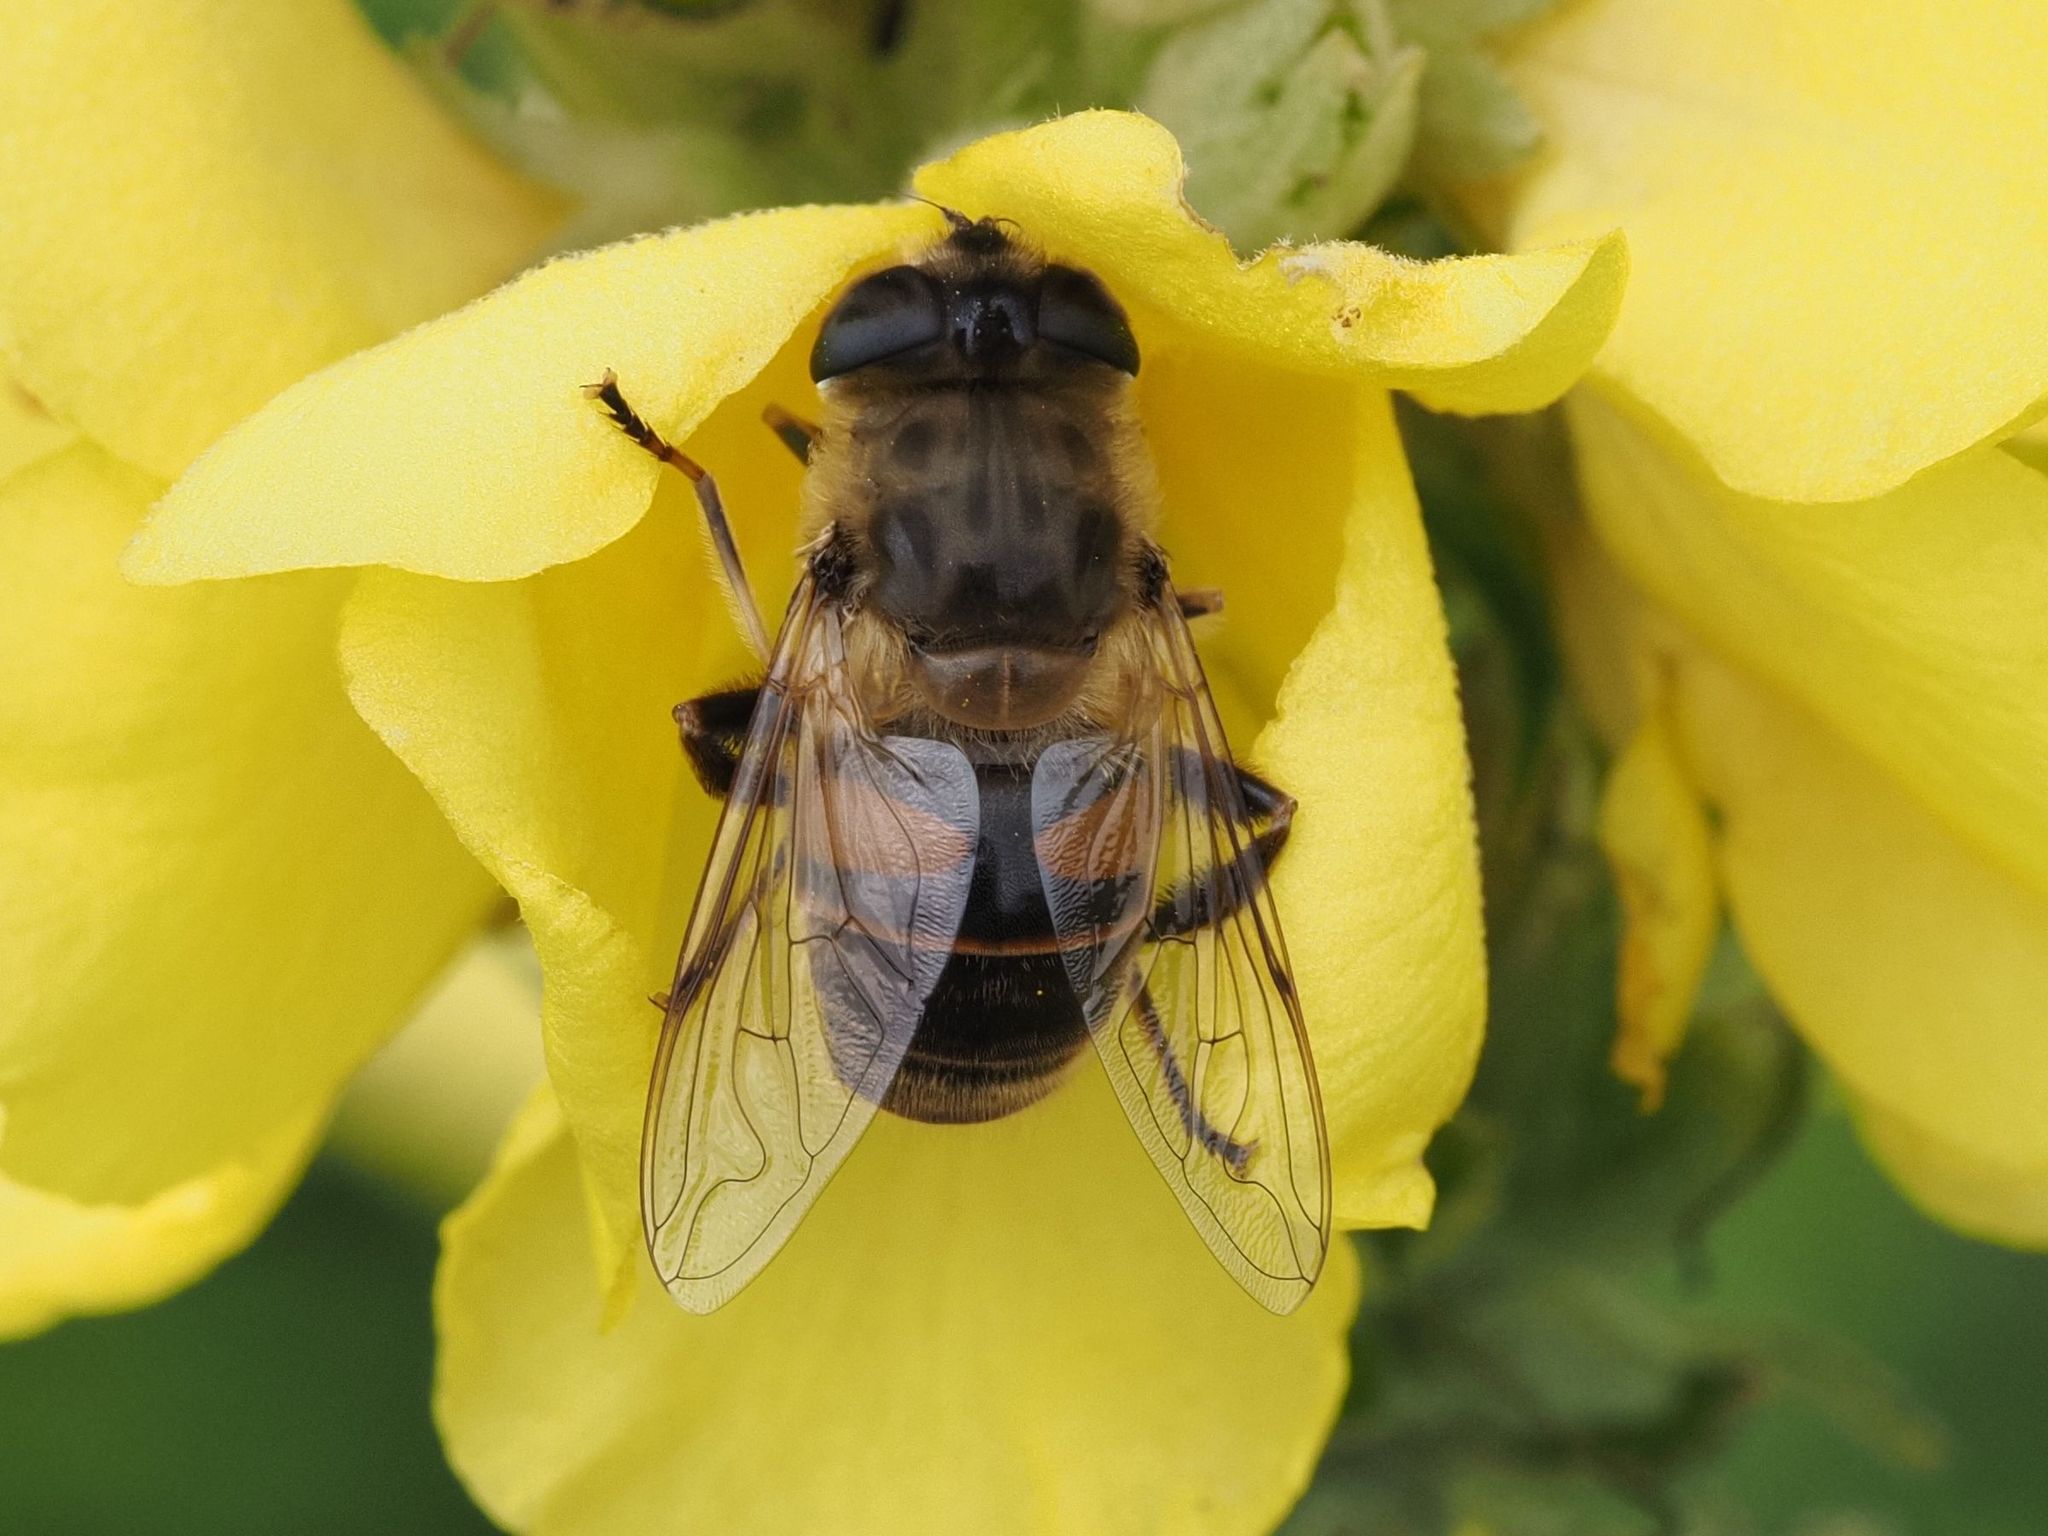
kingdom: Animalia
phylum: Arthropoda
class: Insecta
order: Diptera
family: Syrphidae
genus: Eristalis
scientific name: Eristalis tenax
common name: Drone fly
